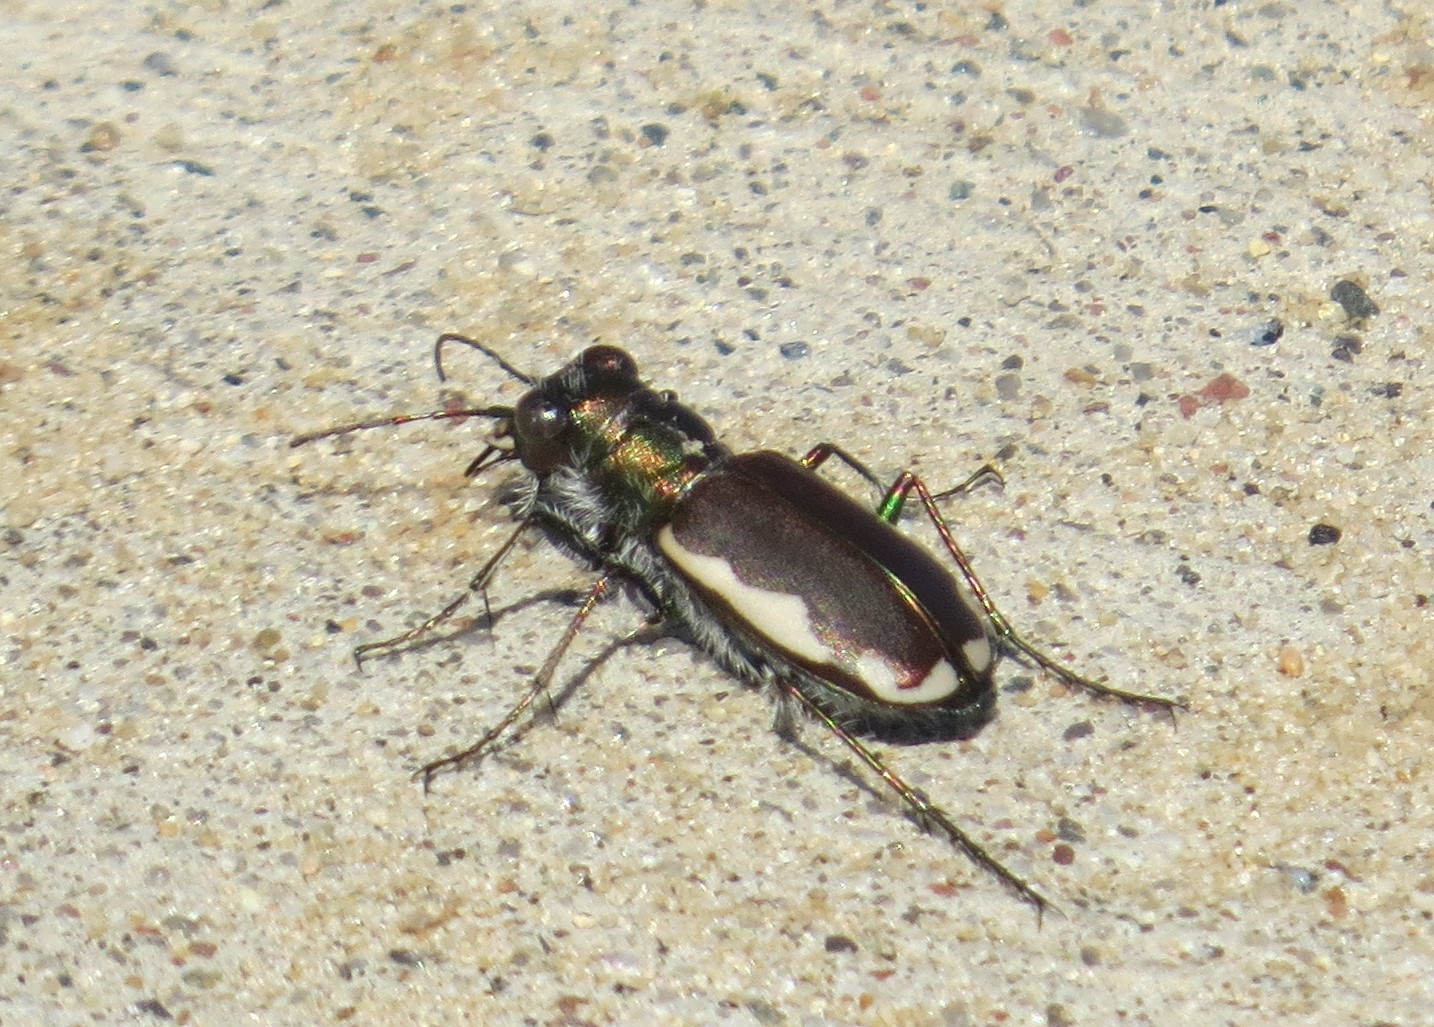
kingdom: Animalia
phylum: Arthropoda
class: Insecta
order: Coleoptera
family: Carabidae
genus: Cicindela
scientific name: Cicindela scutellaris
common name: Festive tiger beetle
